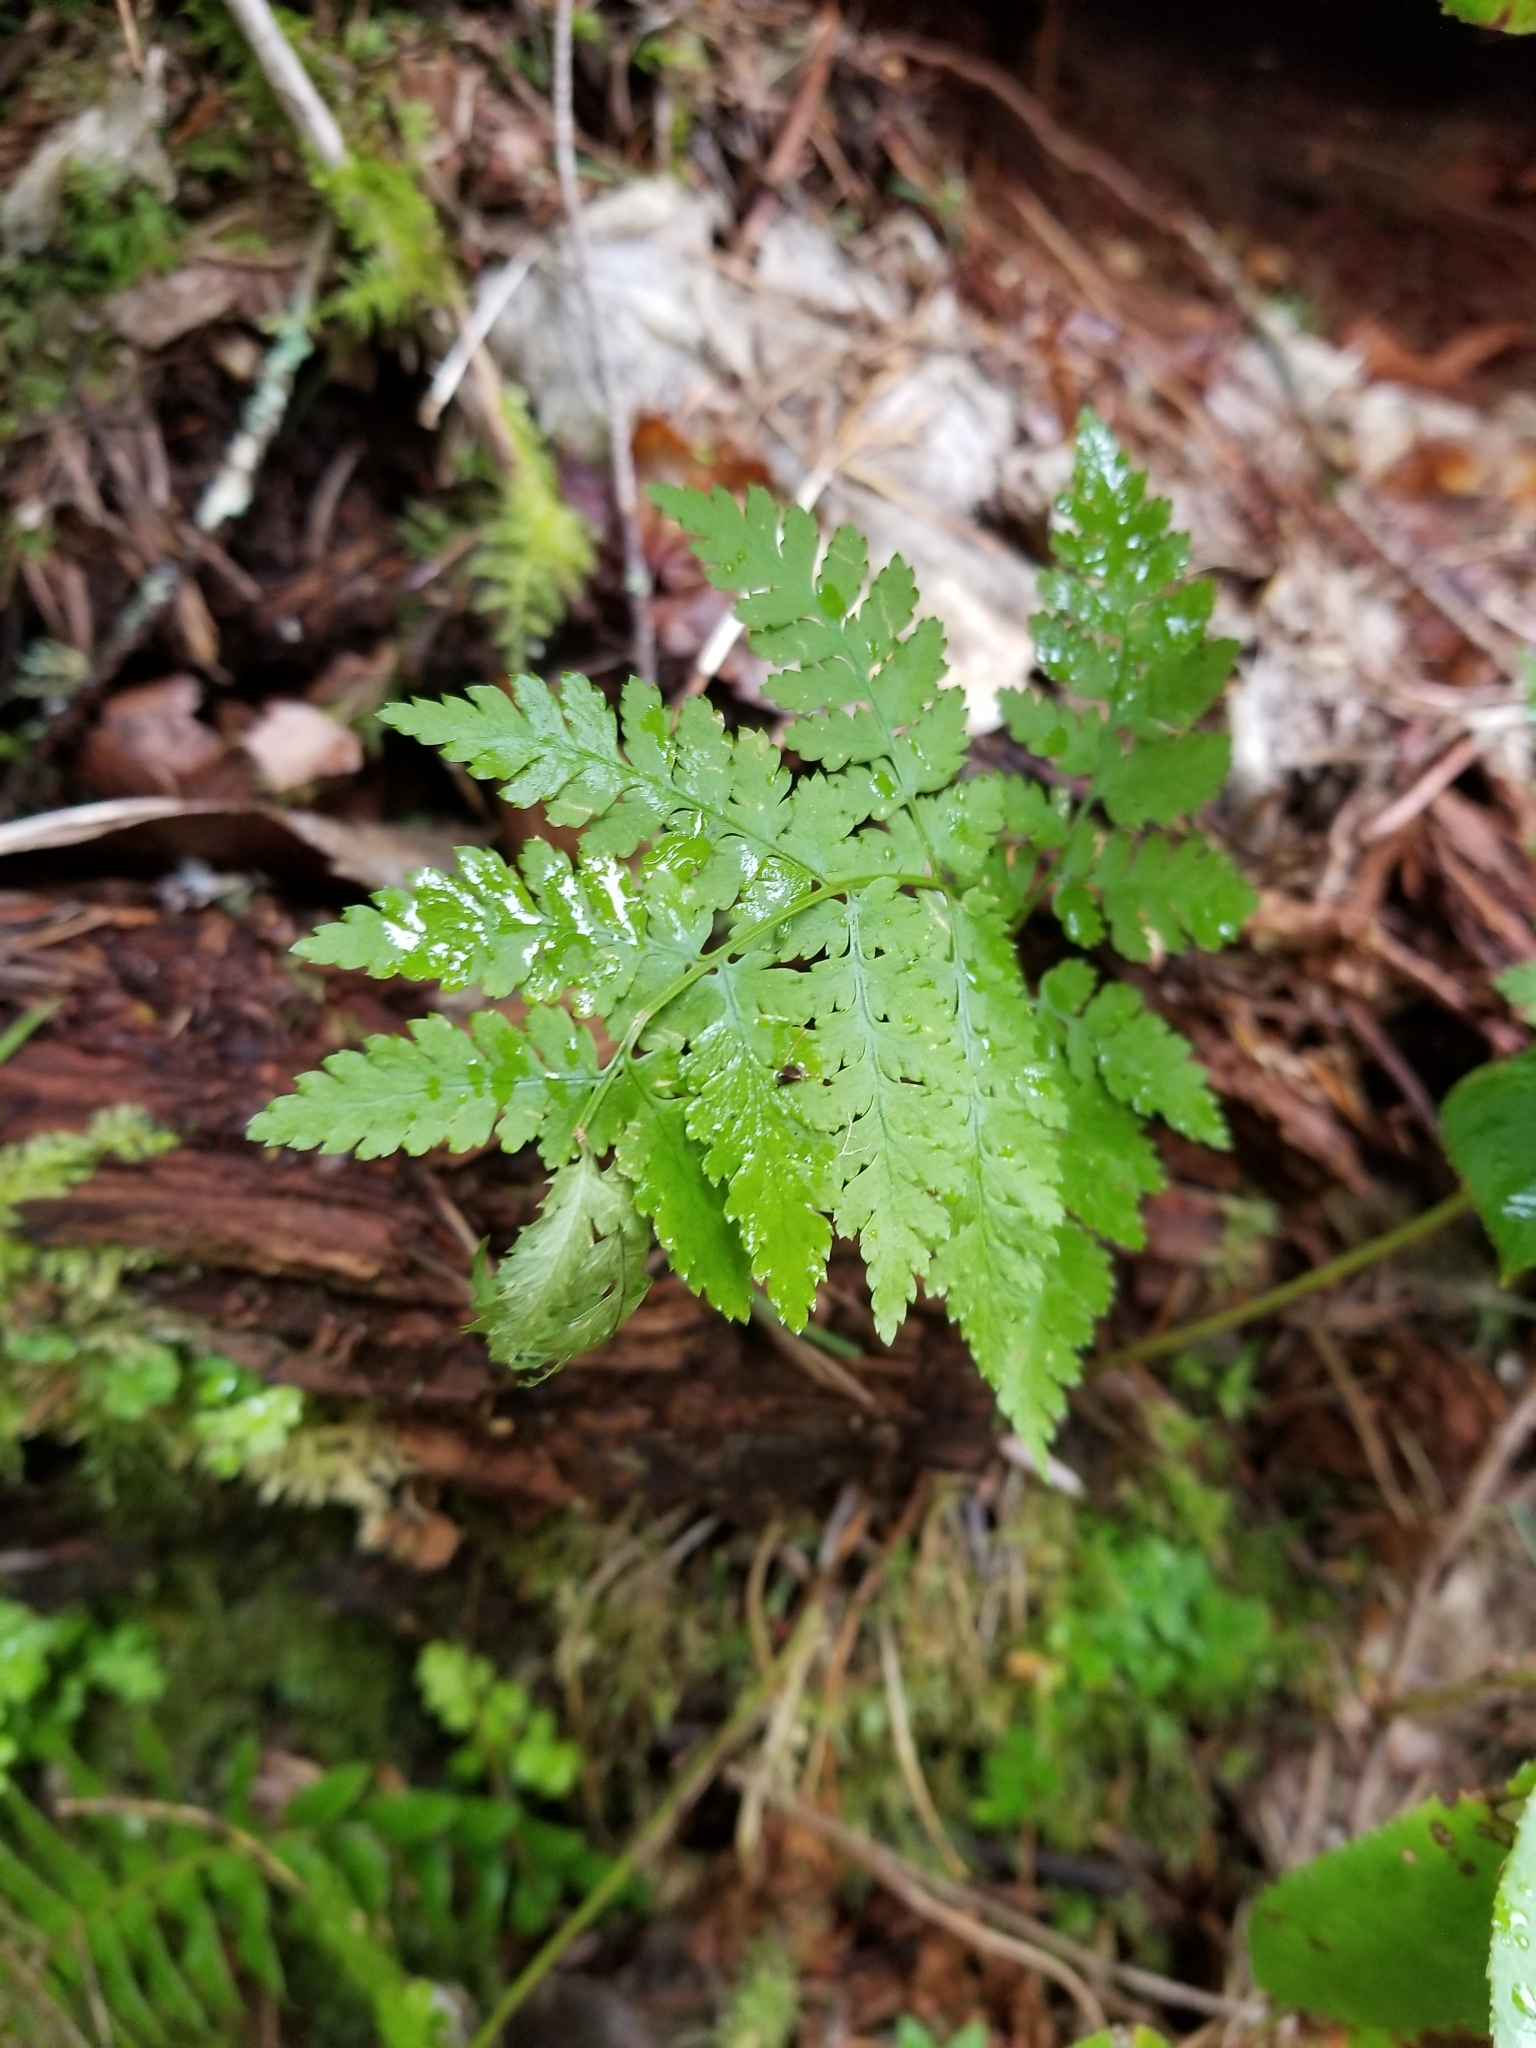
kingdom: Plantae
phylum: Tracheophyta
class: Polypodiopsida
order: Polypodiales
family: Dryopteridaceae
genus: Dryopteris
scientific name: Dryopteris expansa
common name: Northern buckler fern
